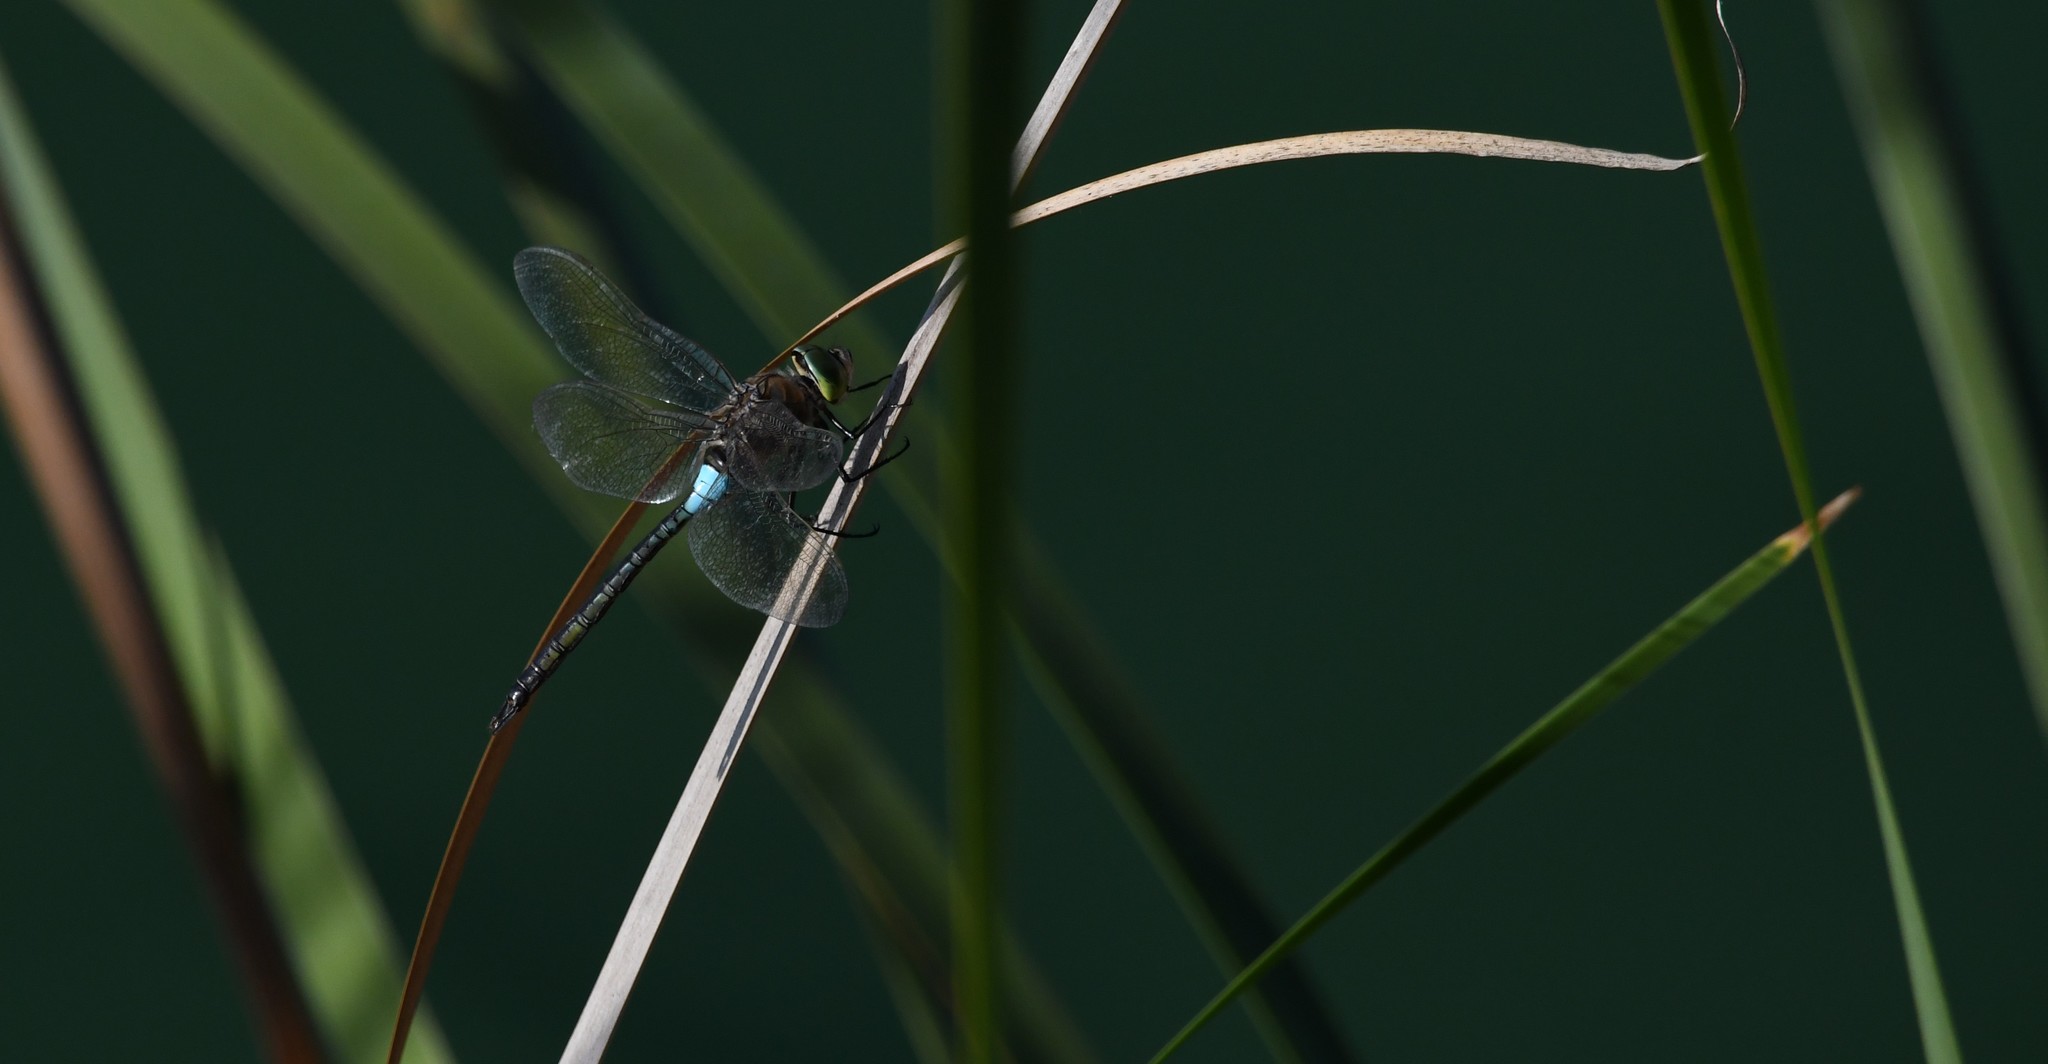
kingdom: Animalia
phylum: Arthropoda
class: Insecta
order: Odonata
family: Aeshnidae
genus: Anax
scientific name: Anax parthenope
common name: Lesser emperor
